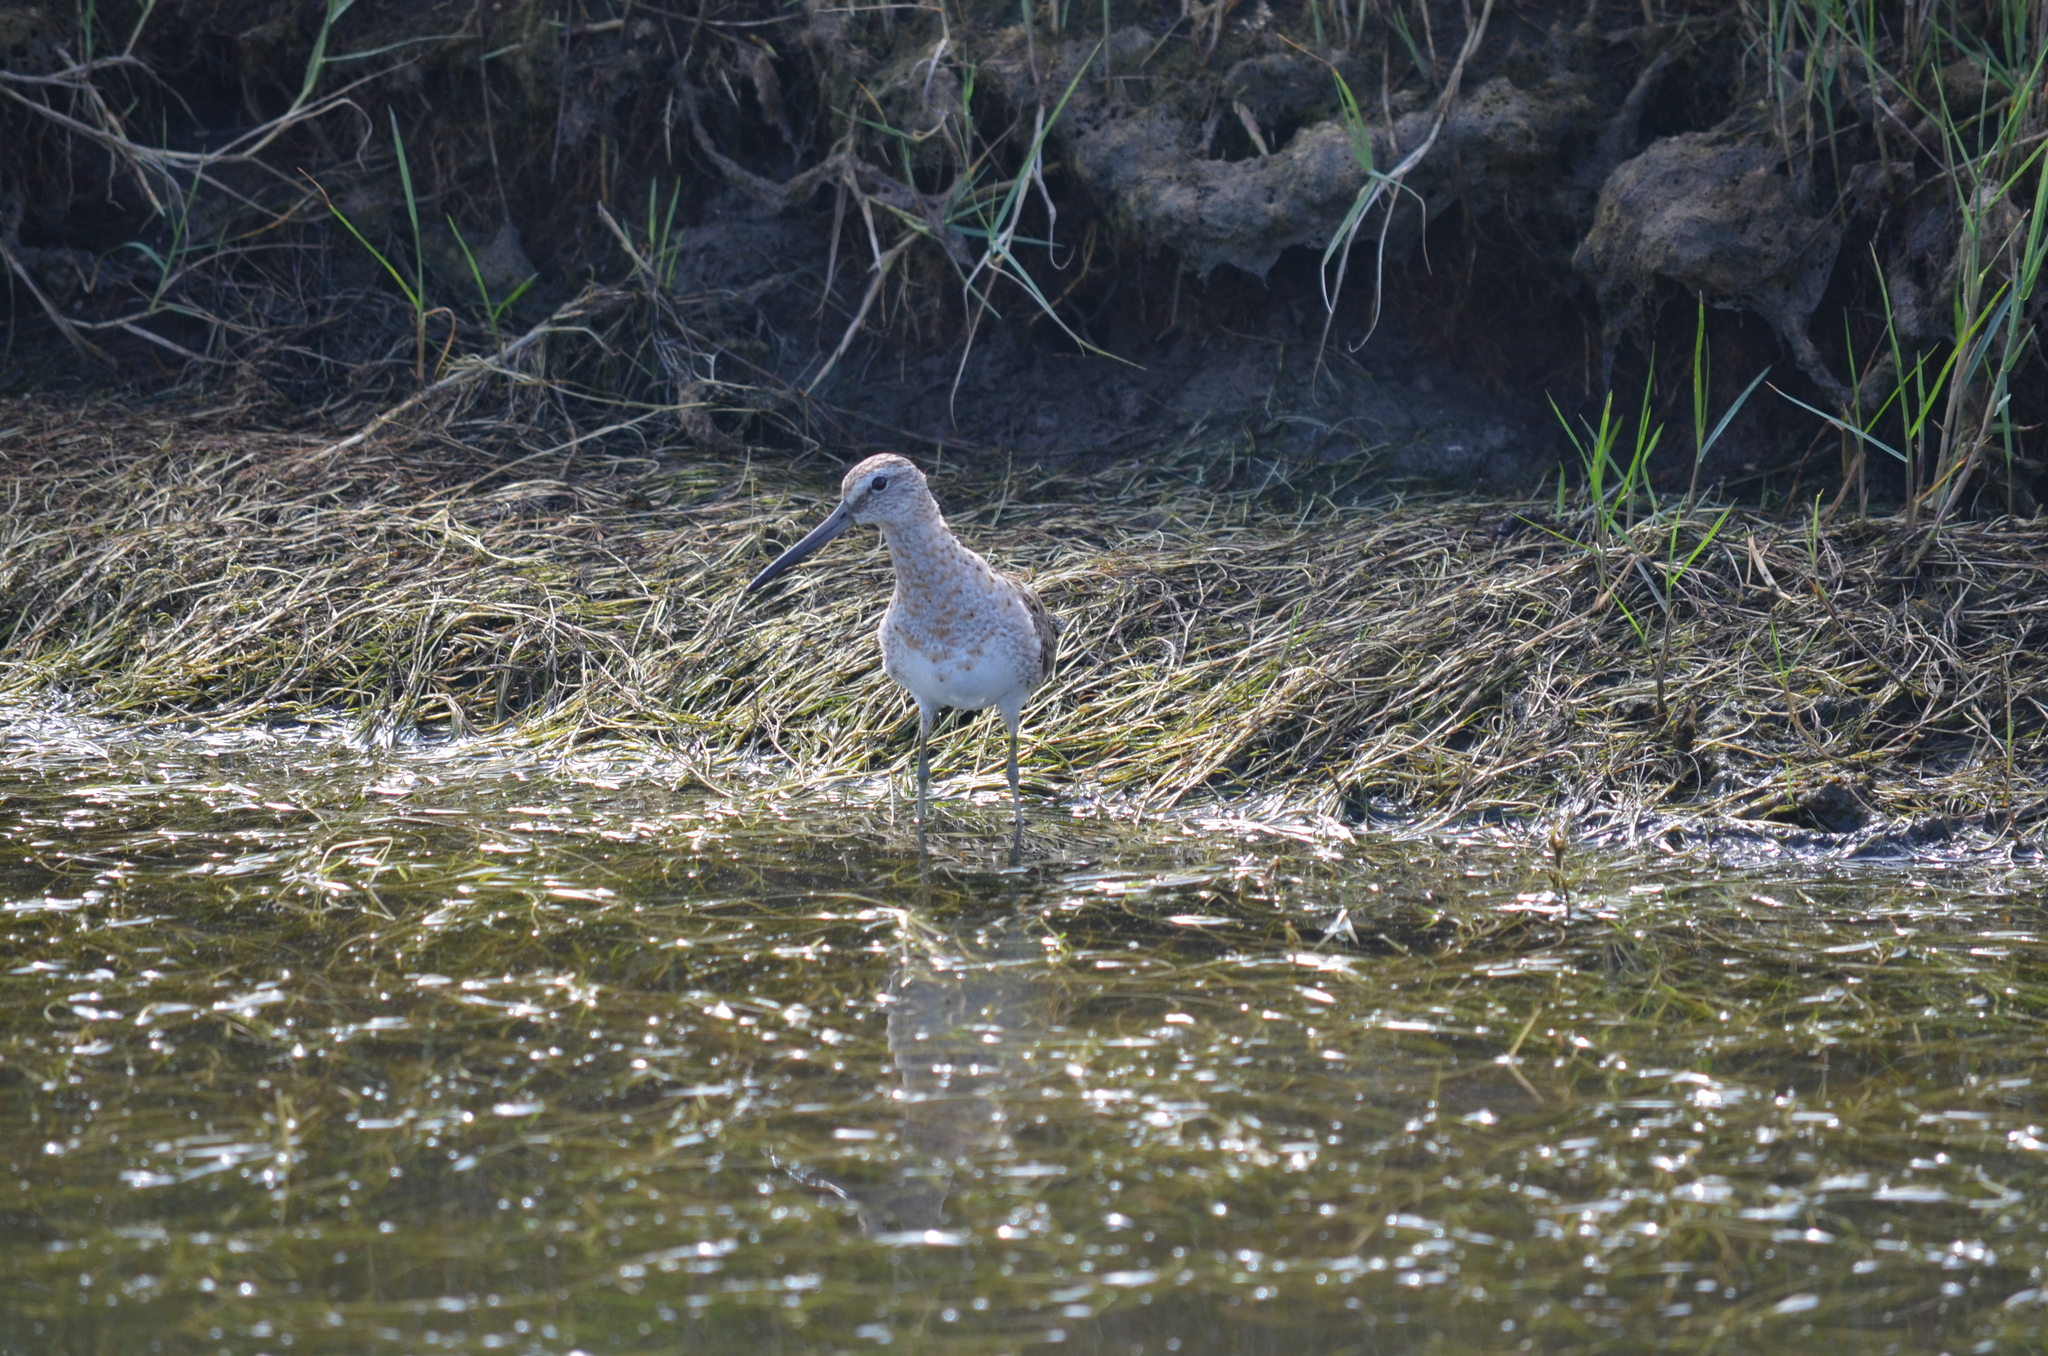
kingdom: Animalia
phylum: Chordata
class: Aves
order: Charadriiformes
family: Scolopacidae
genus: Tringa
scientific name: Tringa semipalmata
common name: Willet
